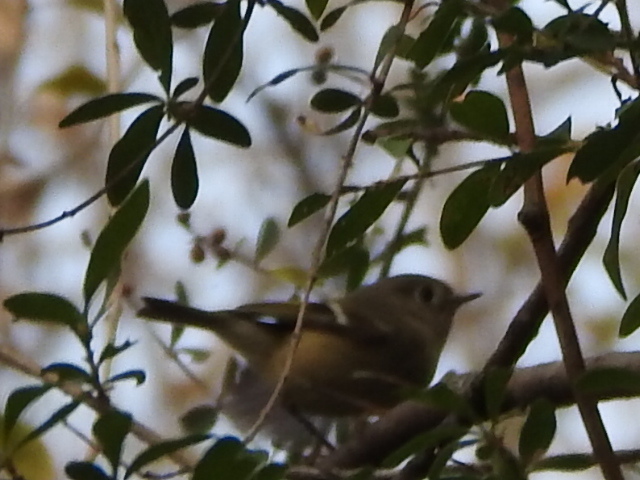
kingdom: Animalia
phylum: Chordata
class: Aves
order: Passeriformes
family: Regulidae
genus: Regulus
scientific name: Regulus calendula
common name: Ruby-crowned kinglet
